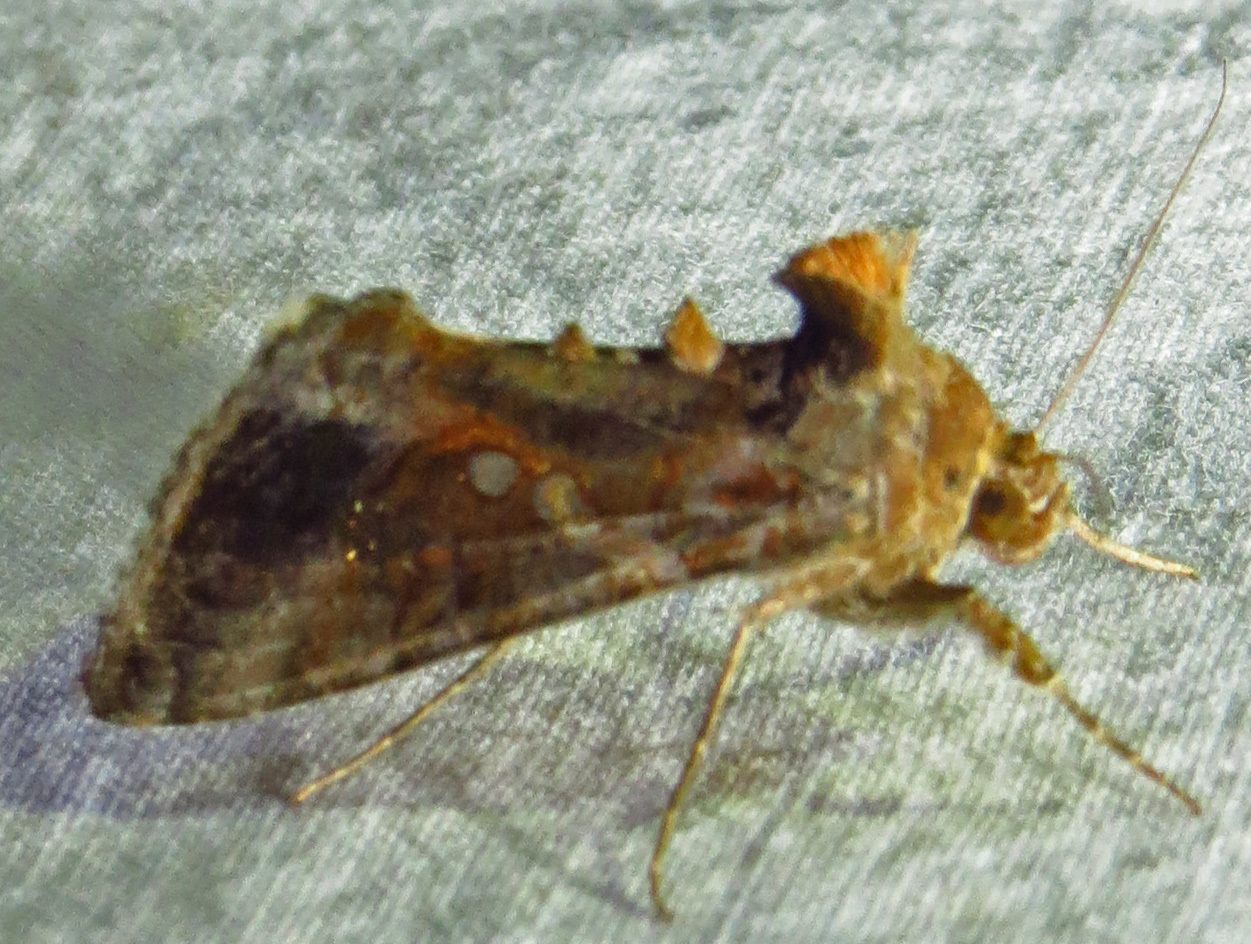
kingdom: Animalia
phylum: Arthropoda
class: Insecta
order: Lepidoptera
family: Noctuidae
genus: Chrysodeixis
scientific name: Chrysodeixis includens
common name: Cutworm moth
